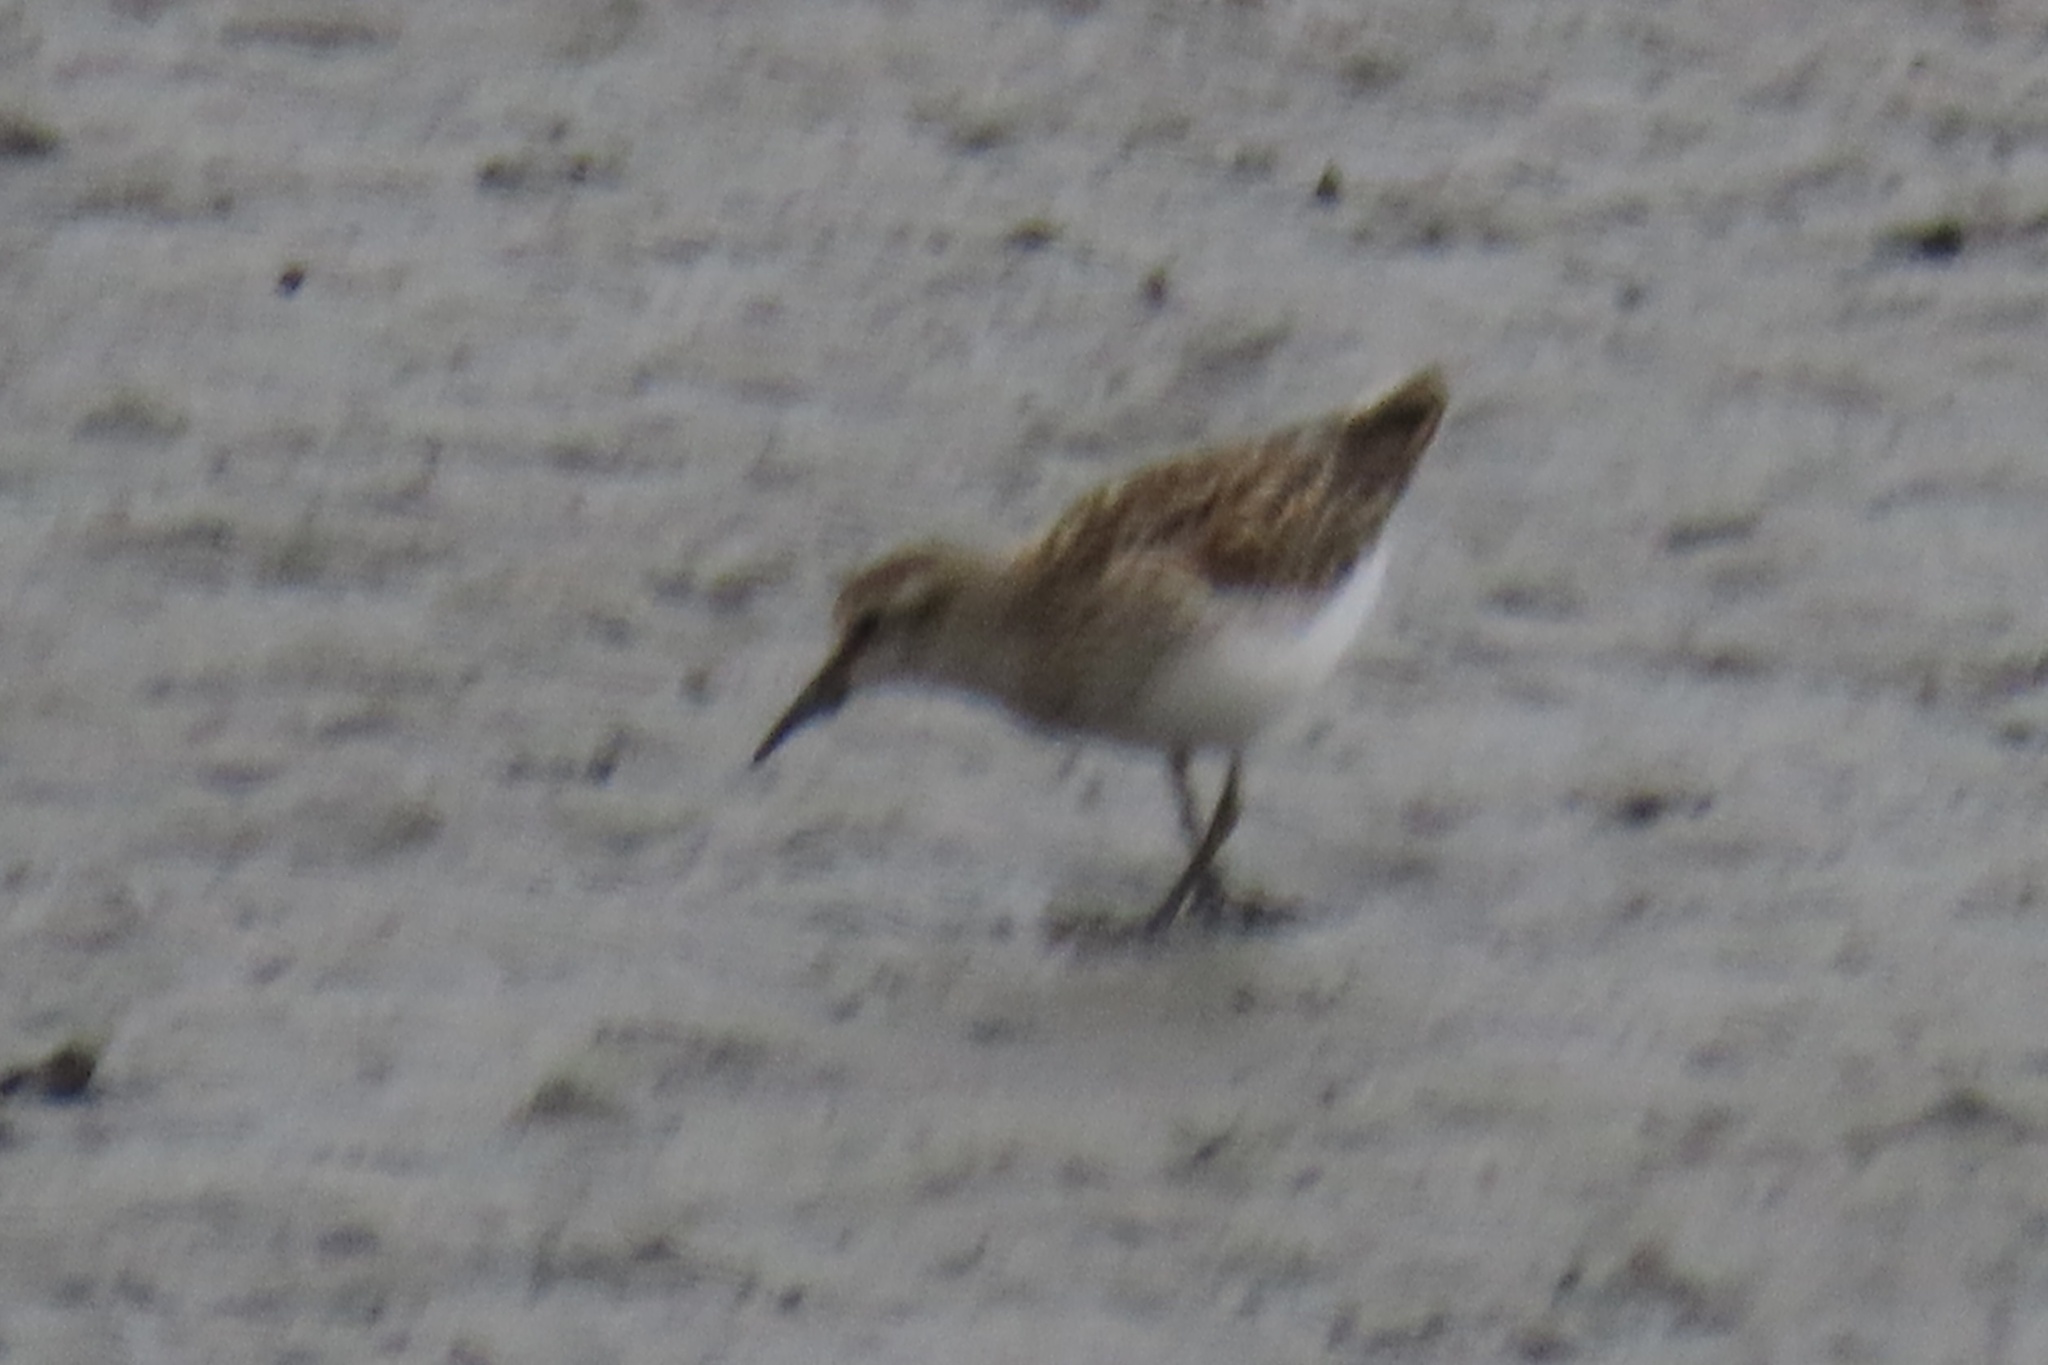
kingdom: Animalia
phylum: Chordata
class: Aves
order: Charadriiformes
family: Scolopacidae
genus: Calidris
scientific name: Calidris minutilla
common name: Least sandpiper
